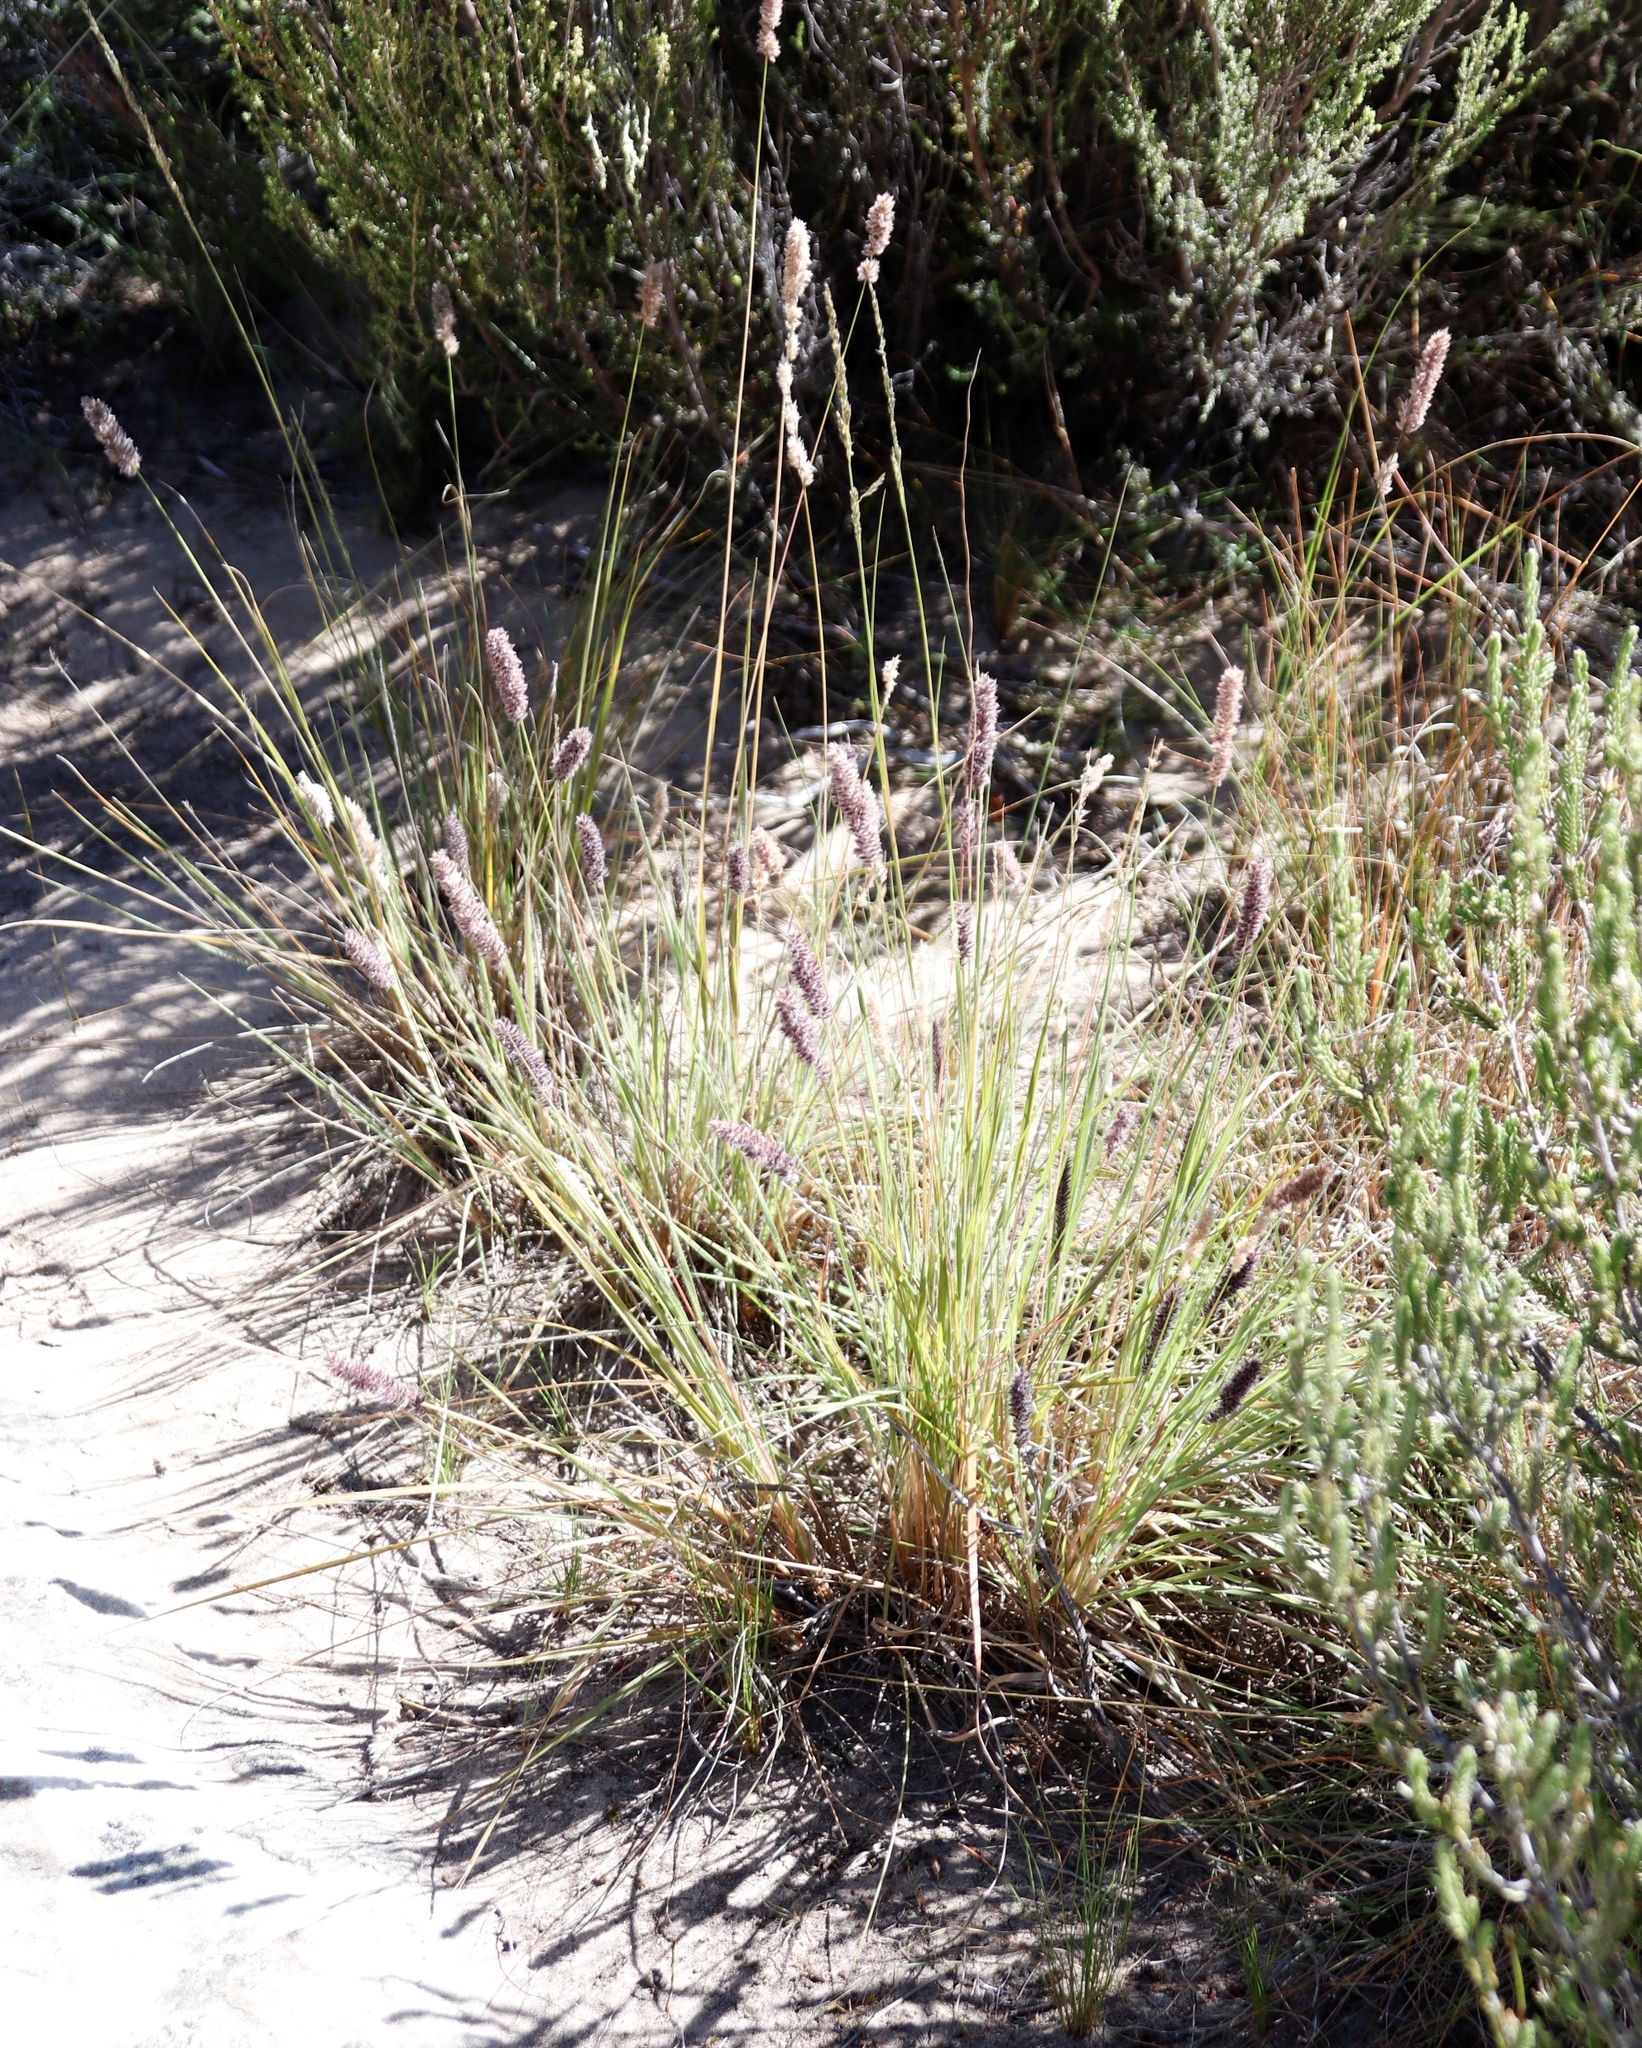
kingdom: Plantae
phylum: Tracheophyta
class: Liliopsida
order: Poales
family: Poaceae
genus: Stiburus
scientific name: Stiburus alopecuroides
